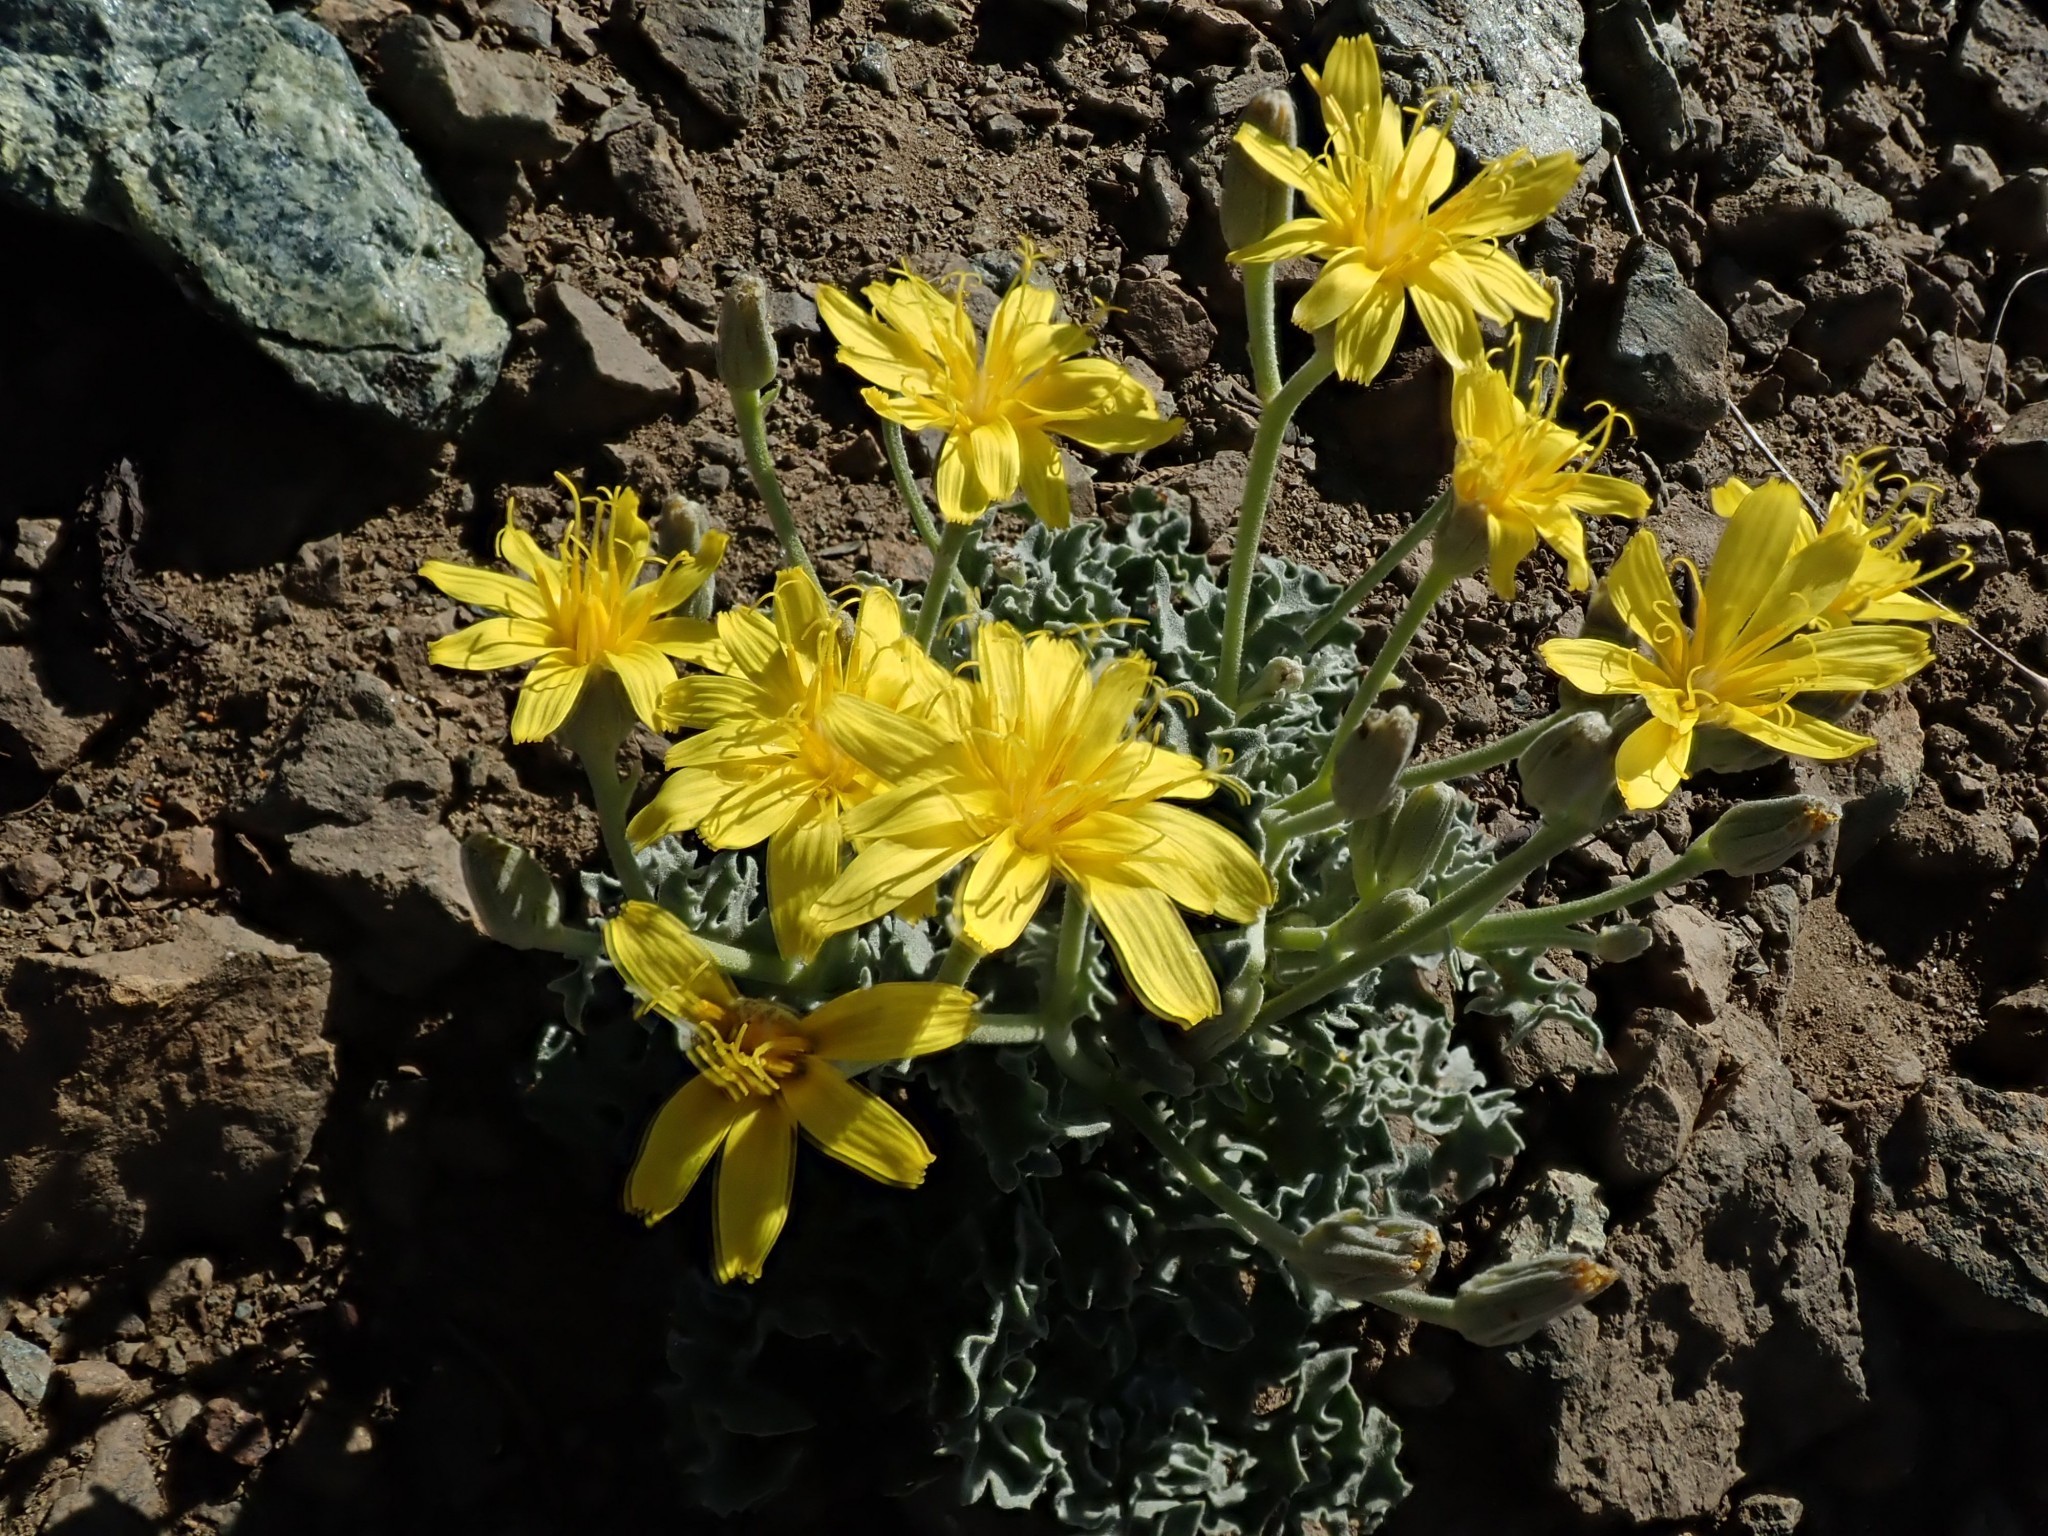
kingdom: Plantae
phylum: Tracheophyta
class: Magnoliopsida
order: Asterales
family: Asteraceae
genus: Crepis
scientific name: Crepis occidentalis
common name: Gray hawk's-beard
